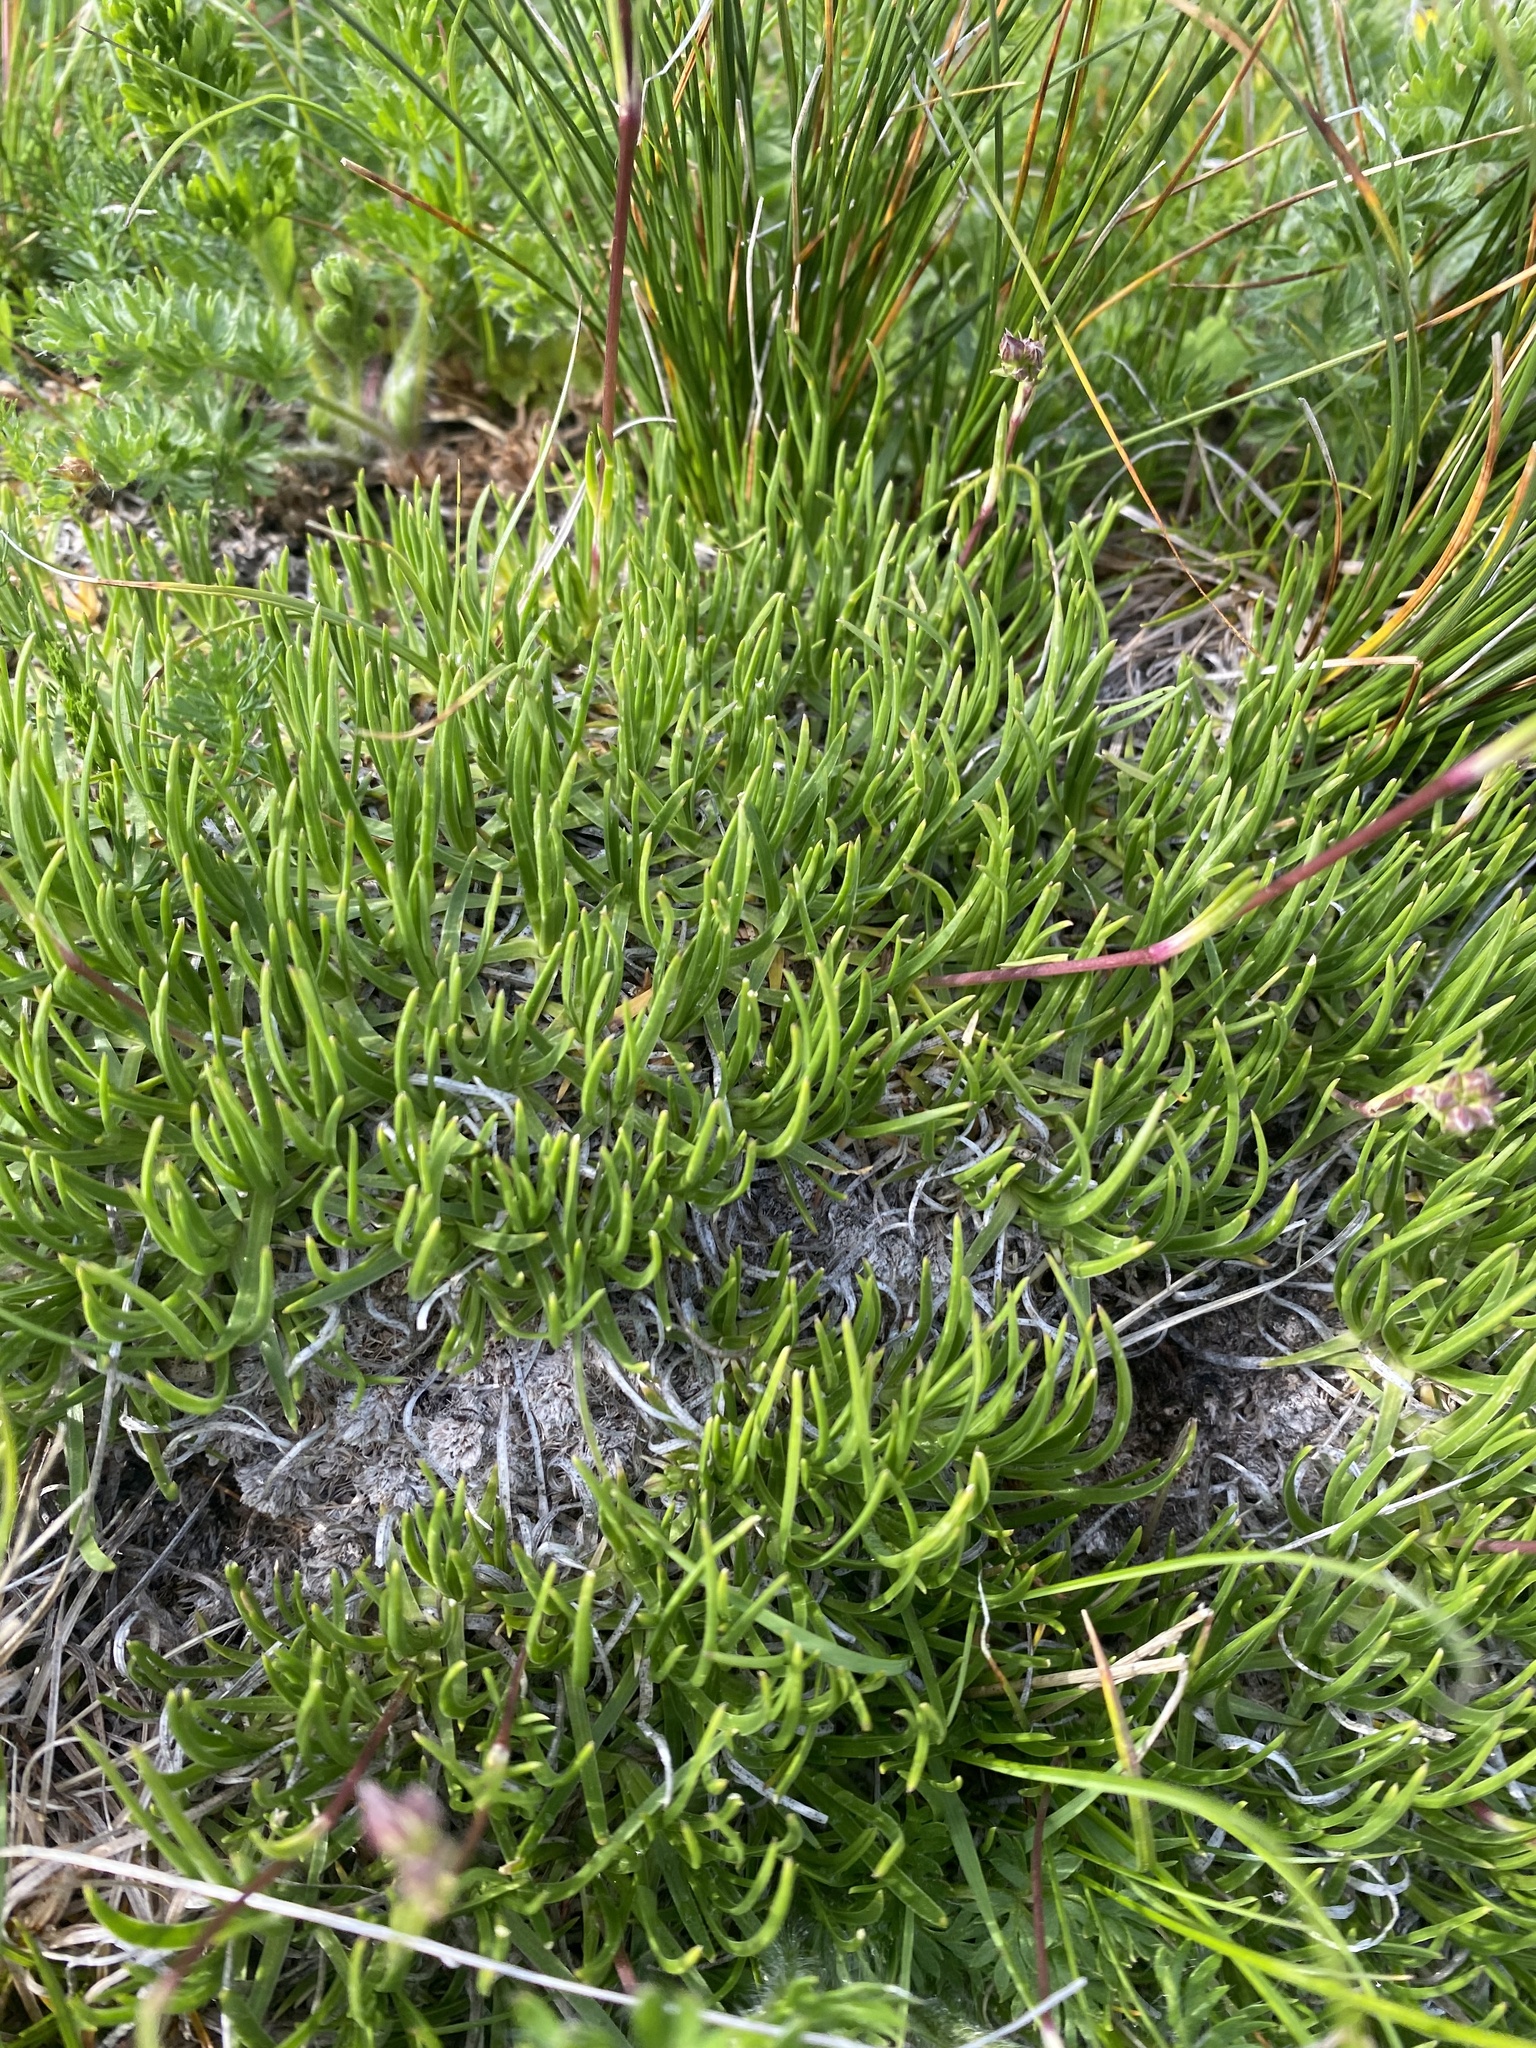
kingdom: Plantae
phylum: Tracheophyta
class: Magnoliopsida
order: Caryophyllales
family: Caryophyllaceae
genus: Gypsophila
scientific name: Gypsophila tenuifolia
